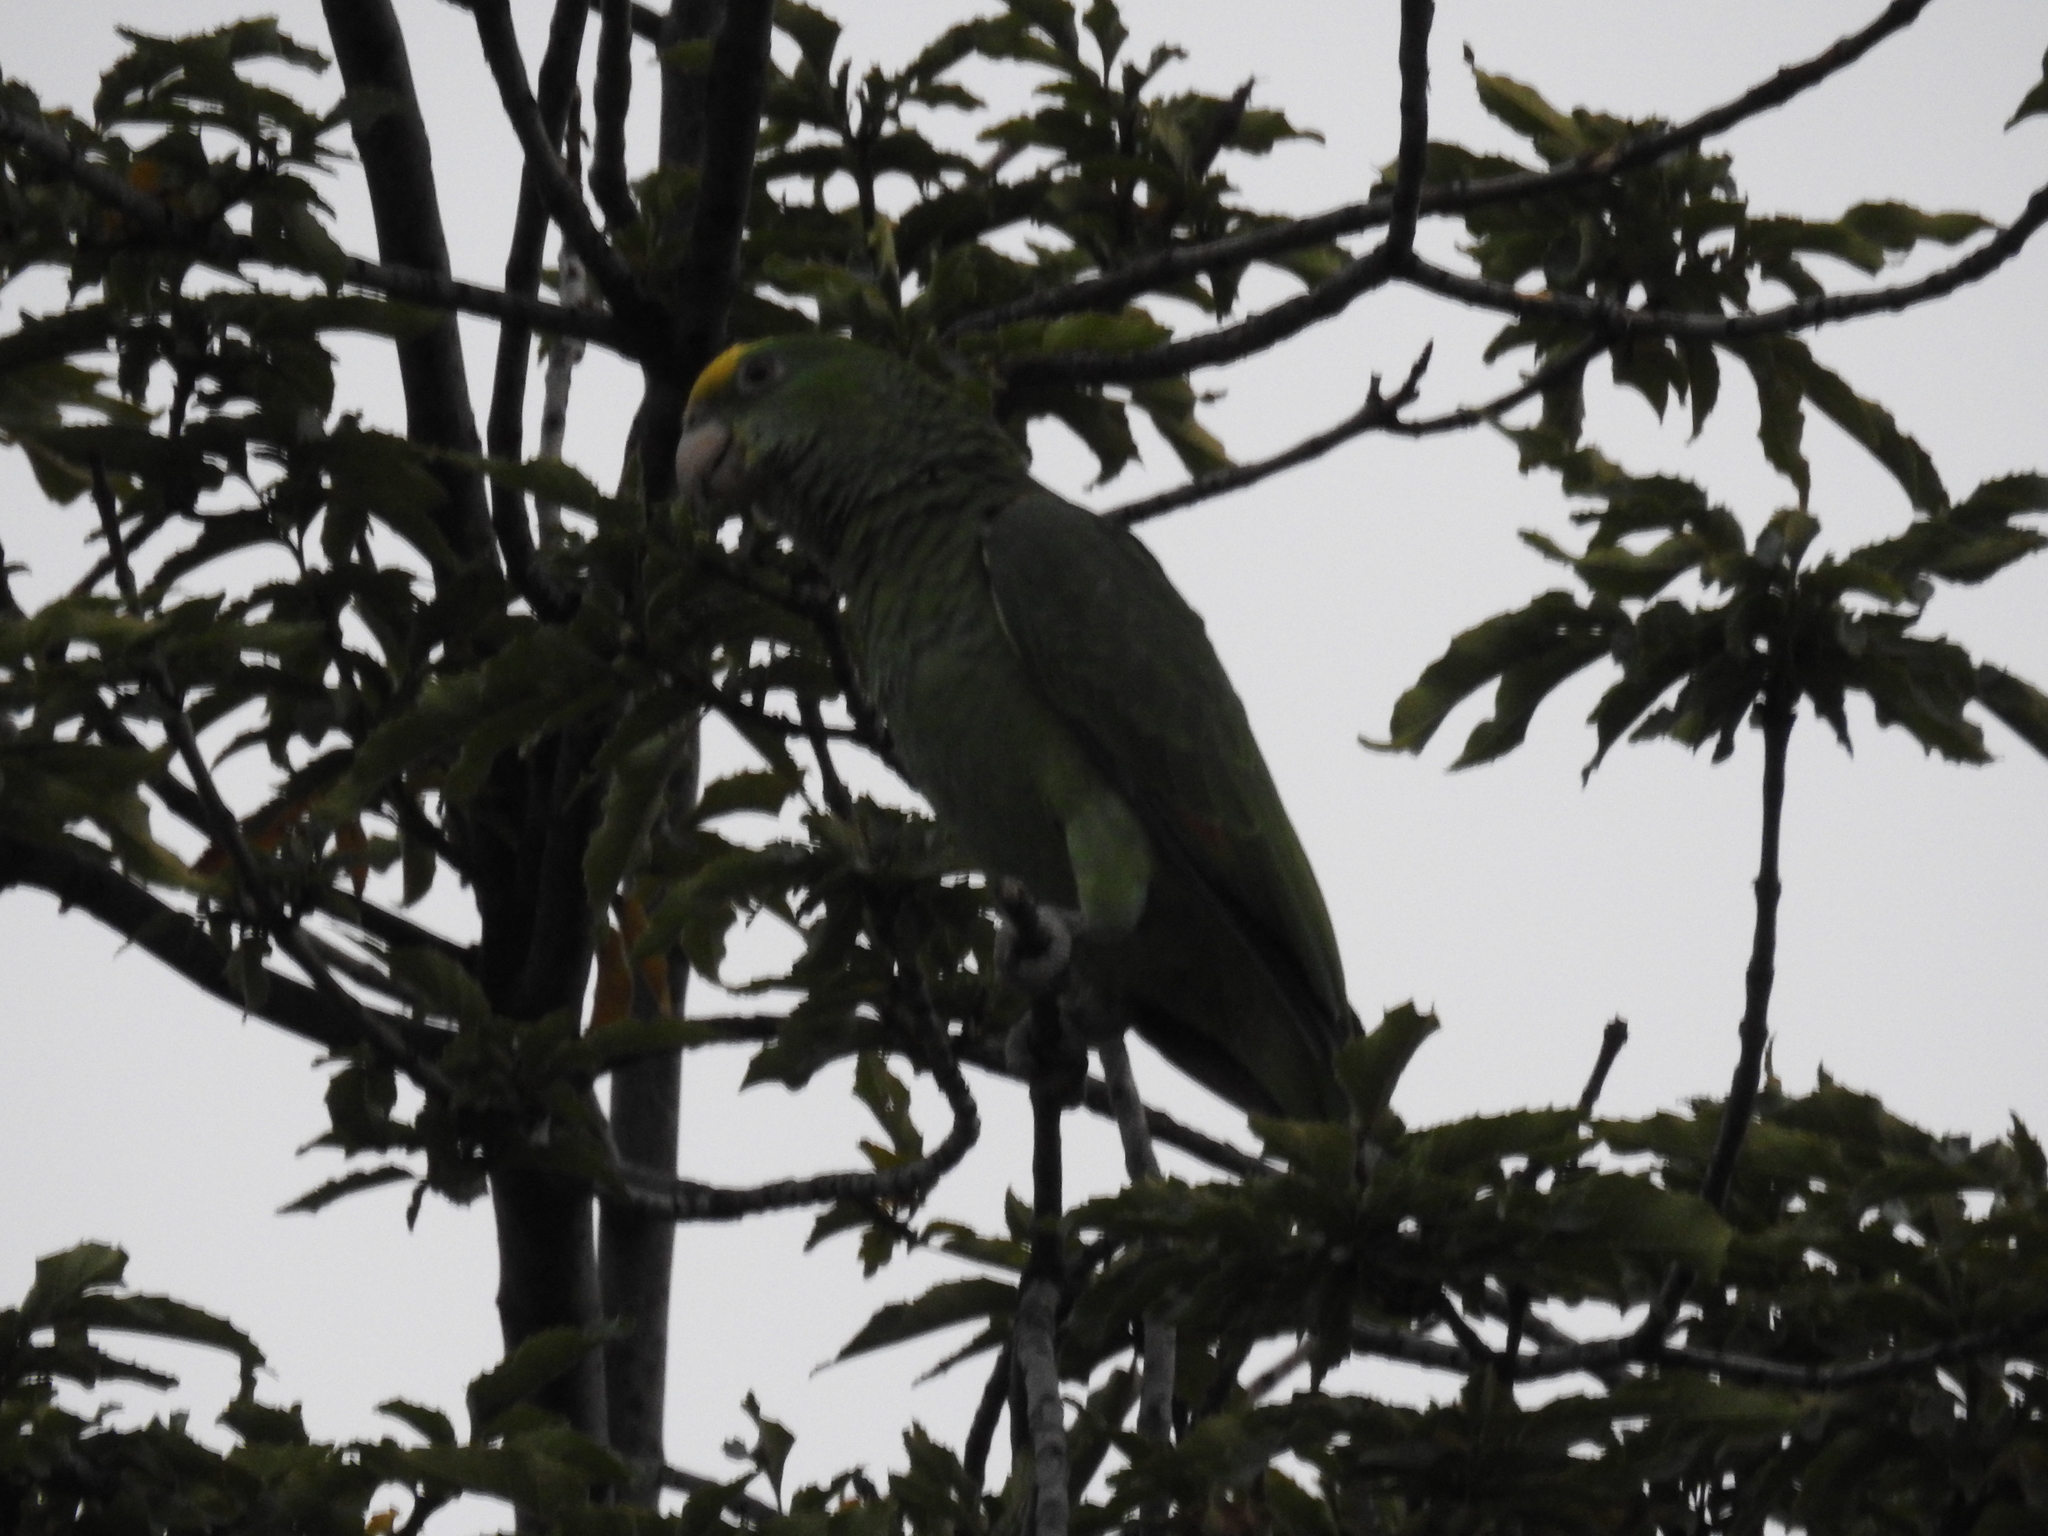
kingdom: Animalia
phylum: Chordata
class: Aves
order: Psittaciformes
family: Psittacidae
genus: Amazona
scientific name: Amazona ochrocephala
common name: Yellow-crowned amazon
